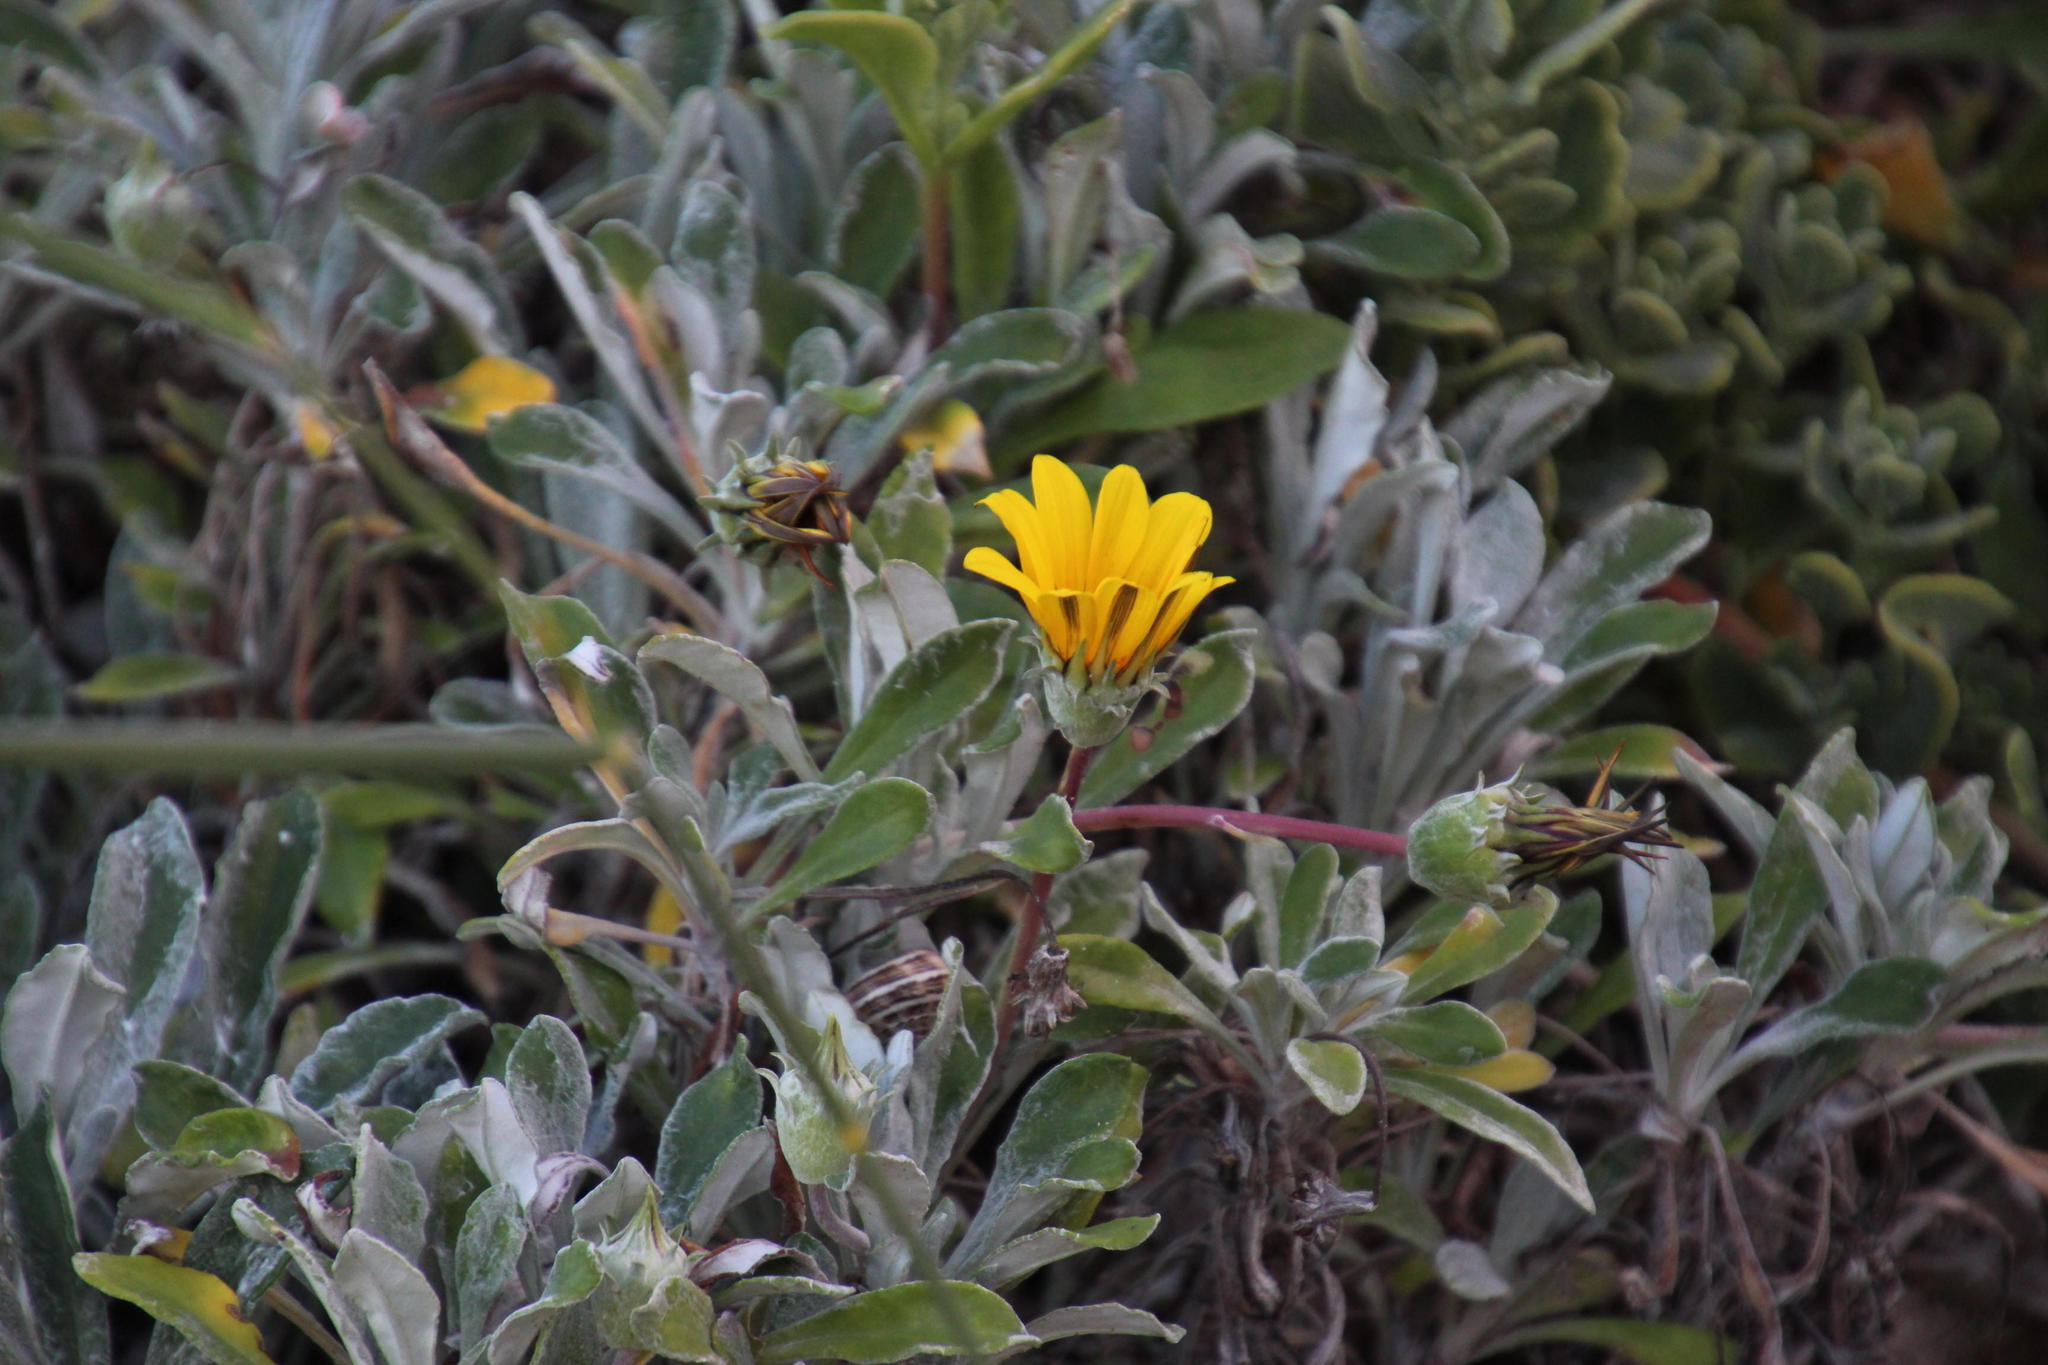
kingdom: Plantae
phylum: Tracheophyta
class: Magnoliopsida
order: Asterales
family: Asteraceae
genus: Gazania
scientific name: Gazania rigens
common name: Treasureflower
